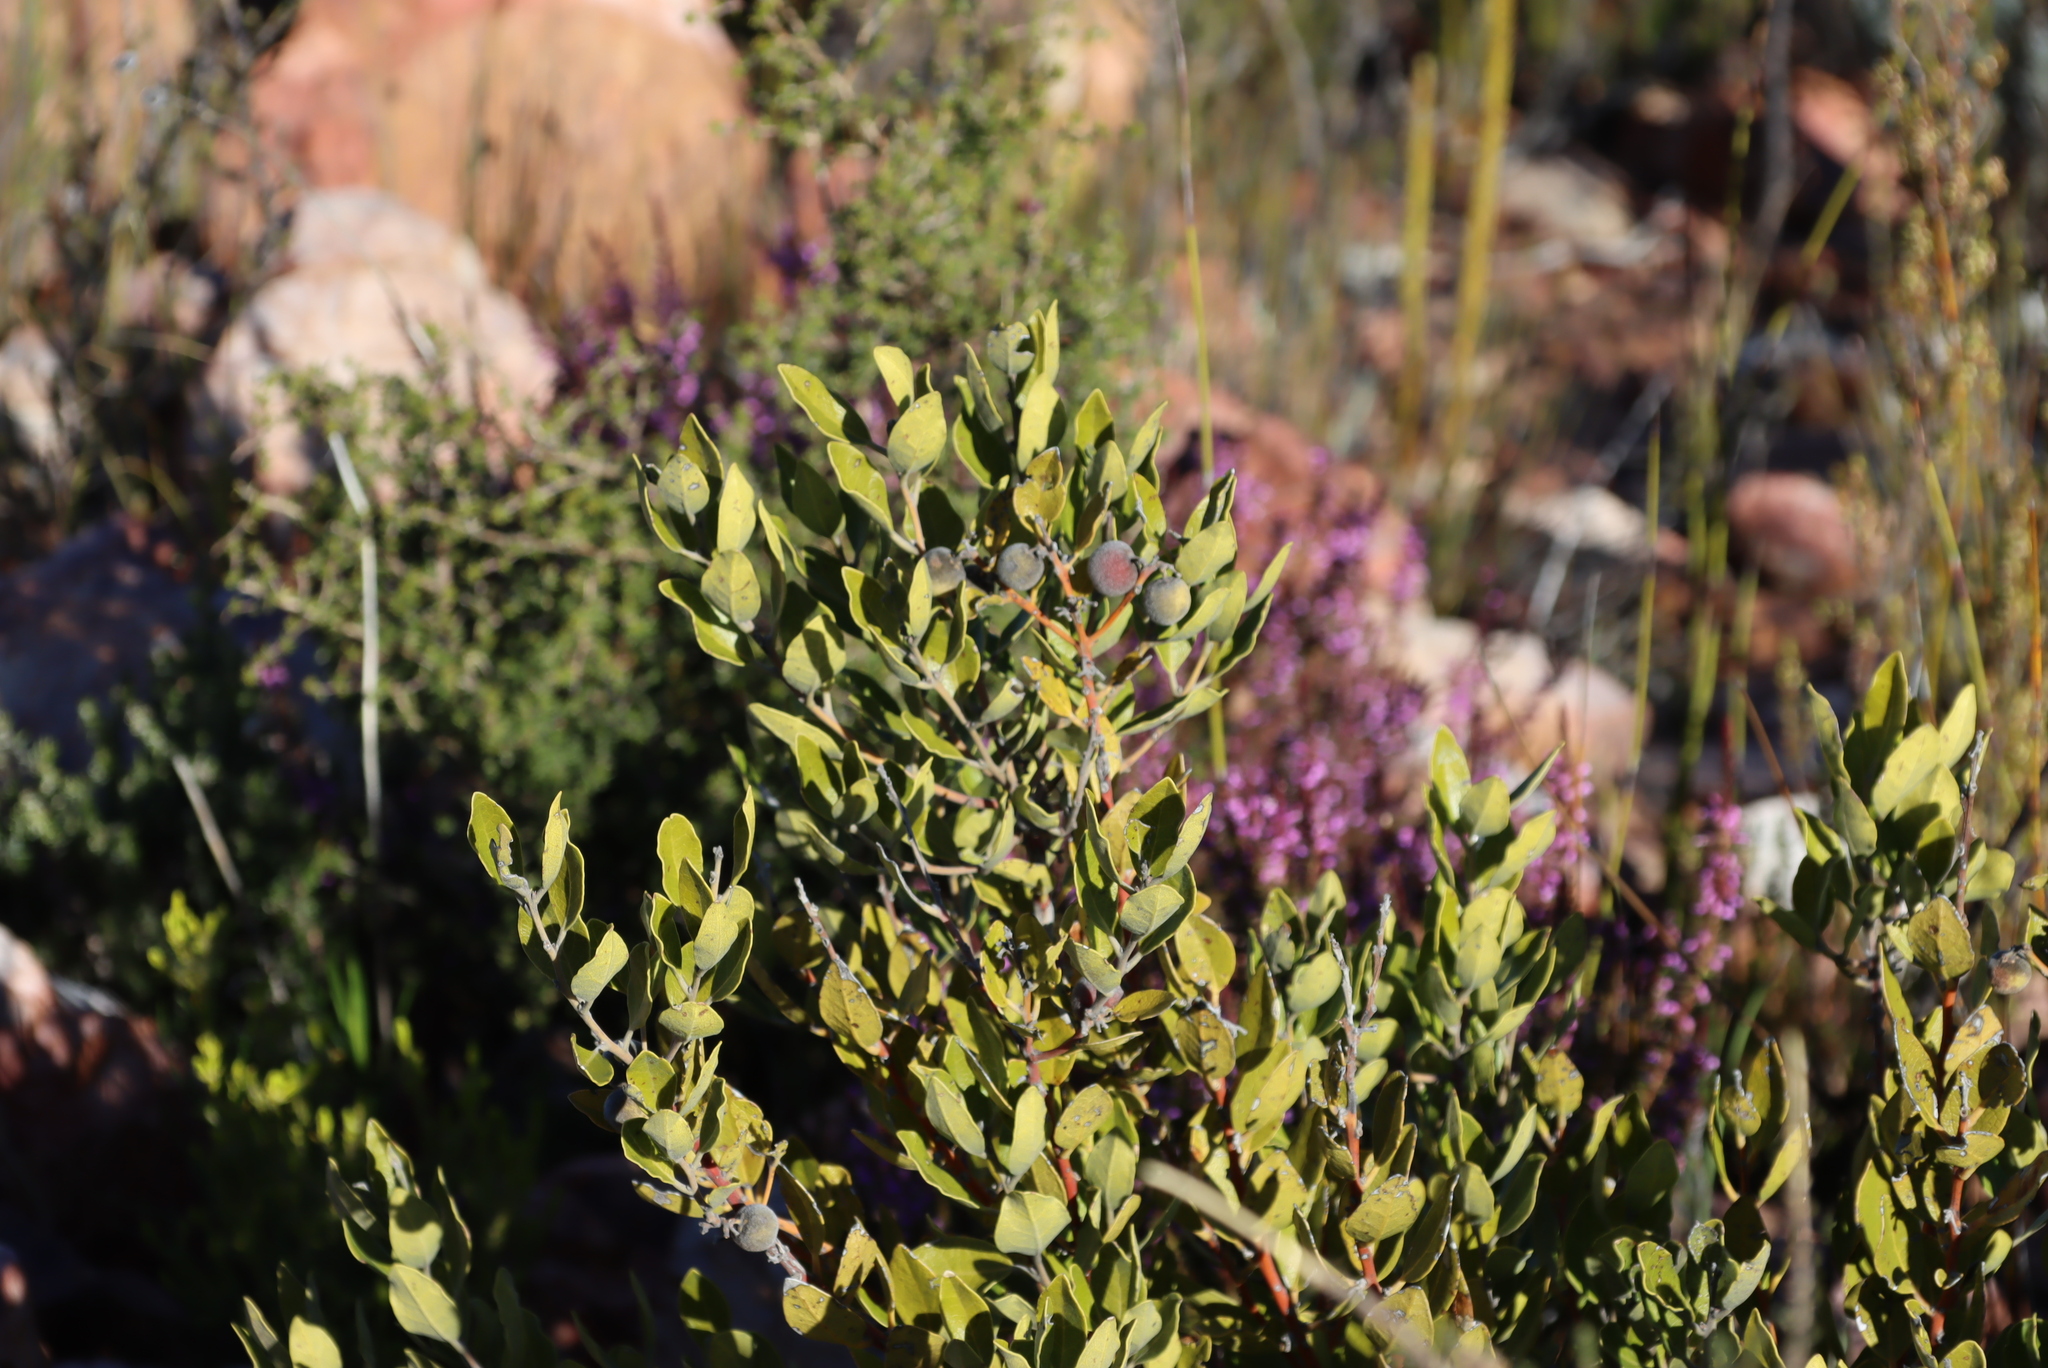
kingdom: Plantae
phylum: Tracheophyta
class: Magnoliopsida
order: Ericales
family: Ebenaceae
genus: Euclea
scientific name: Euclea polyandra
